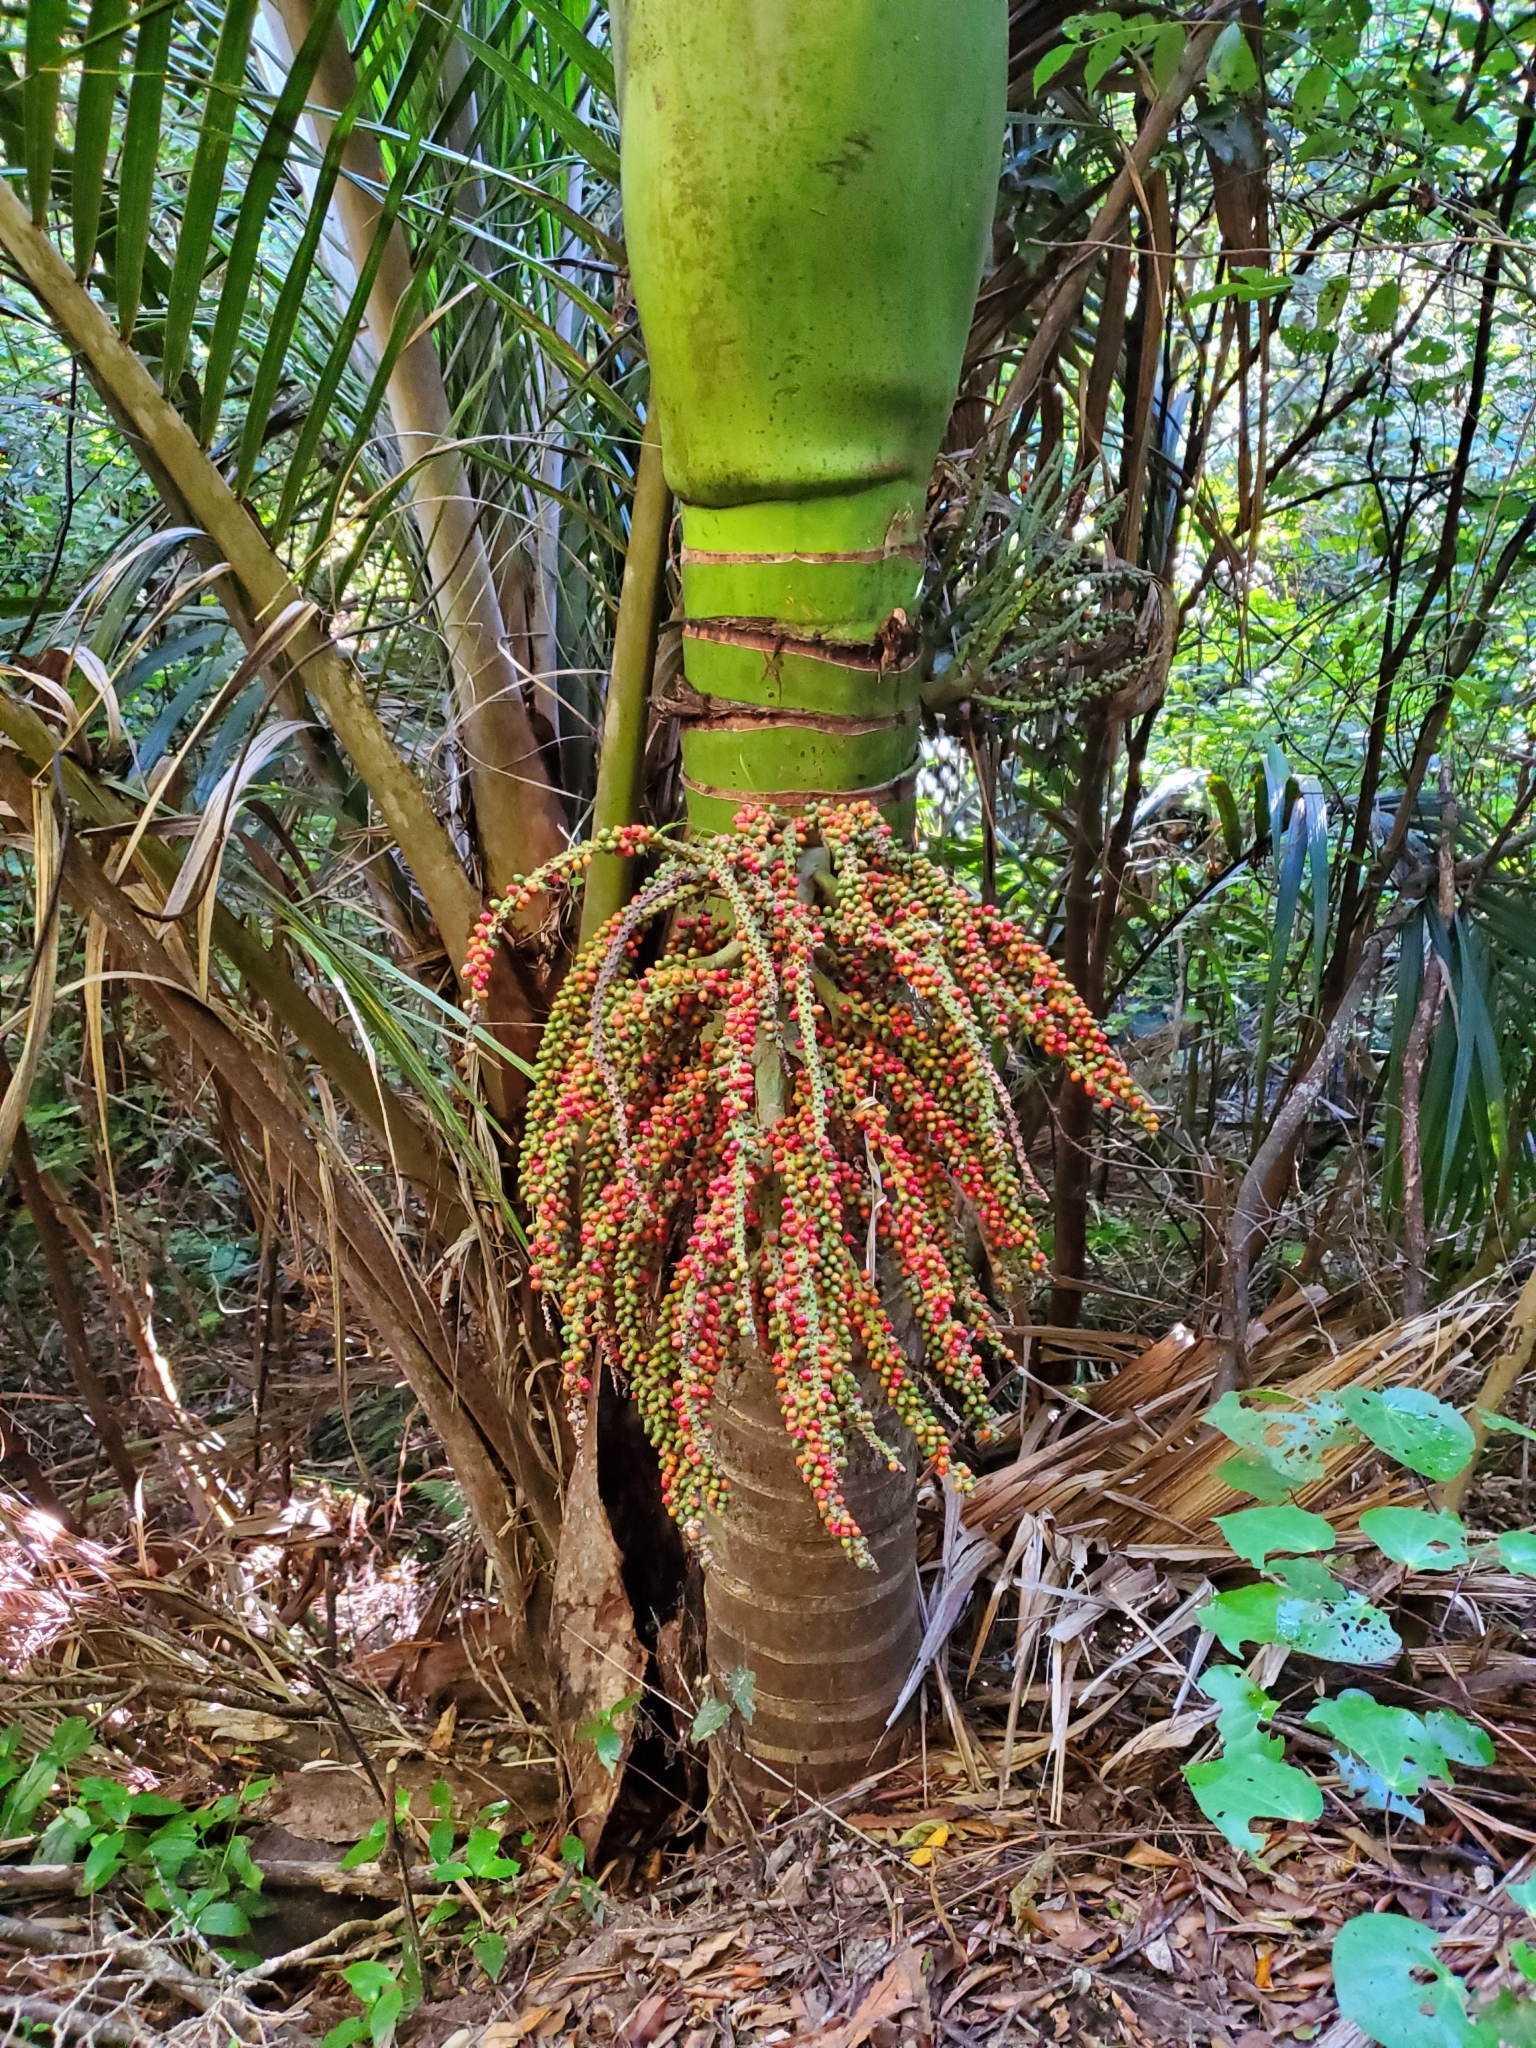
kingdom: Plantae
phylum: Tracheophyta
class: Liliopsida
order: Arecales
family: Arecaceae
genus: Rhopalostylis
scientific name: Rhopalostylis sapida
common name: Feather-duster palm
